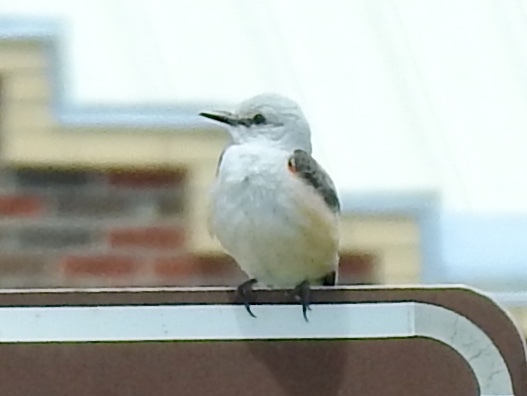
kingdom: Animalia
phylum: Chordata
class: Aves
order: Passeriformes
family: Tyrannidae
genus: Tyrannus
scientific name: Tyrannus forficatus
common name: Scissor-tailed flycatcher
